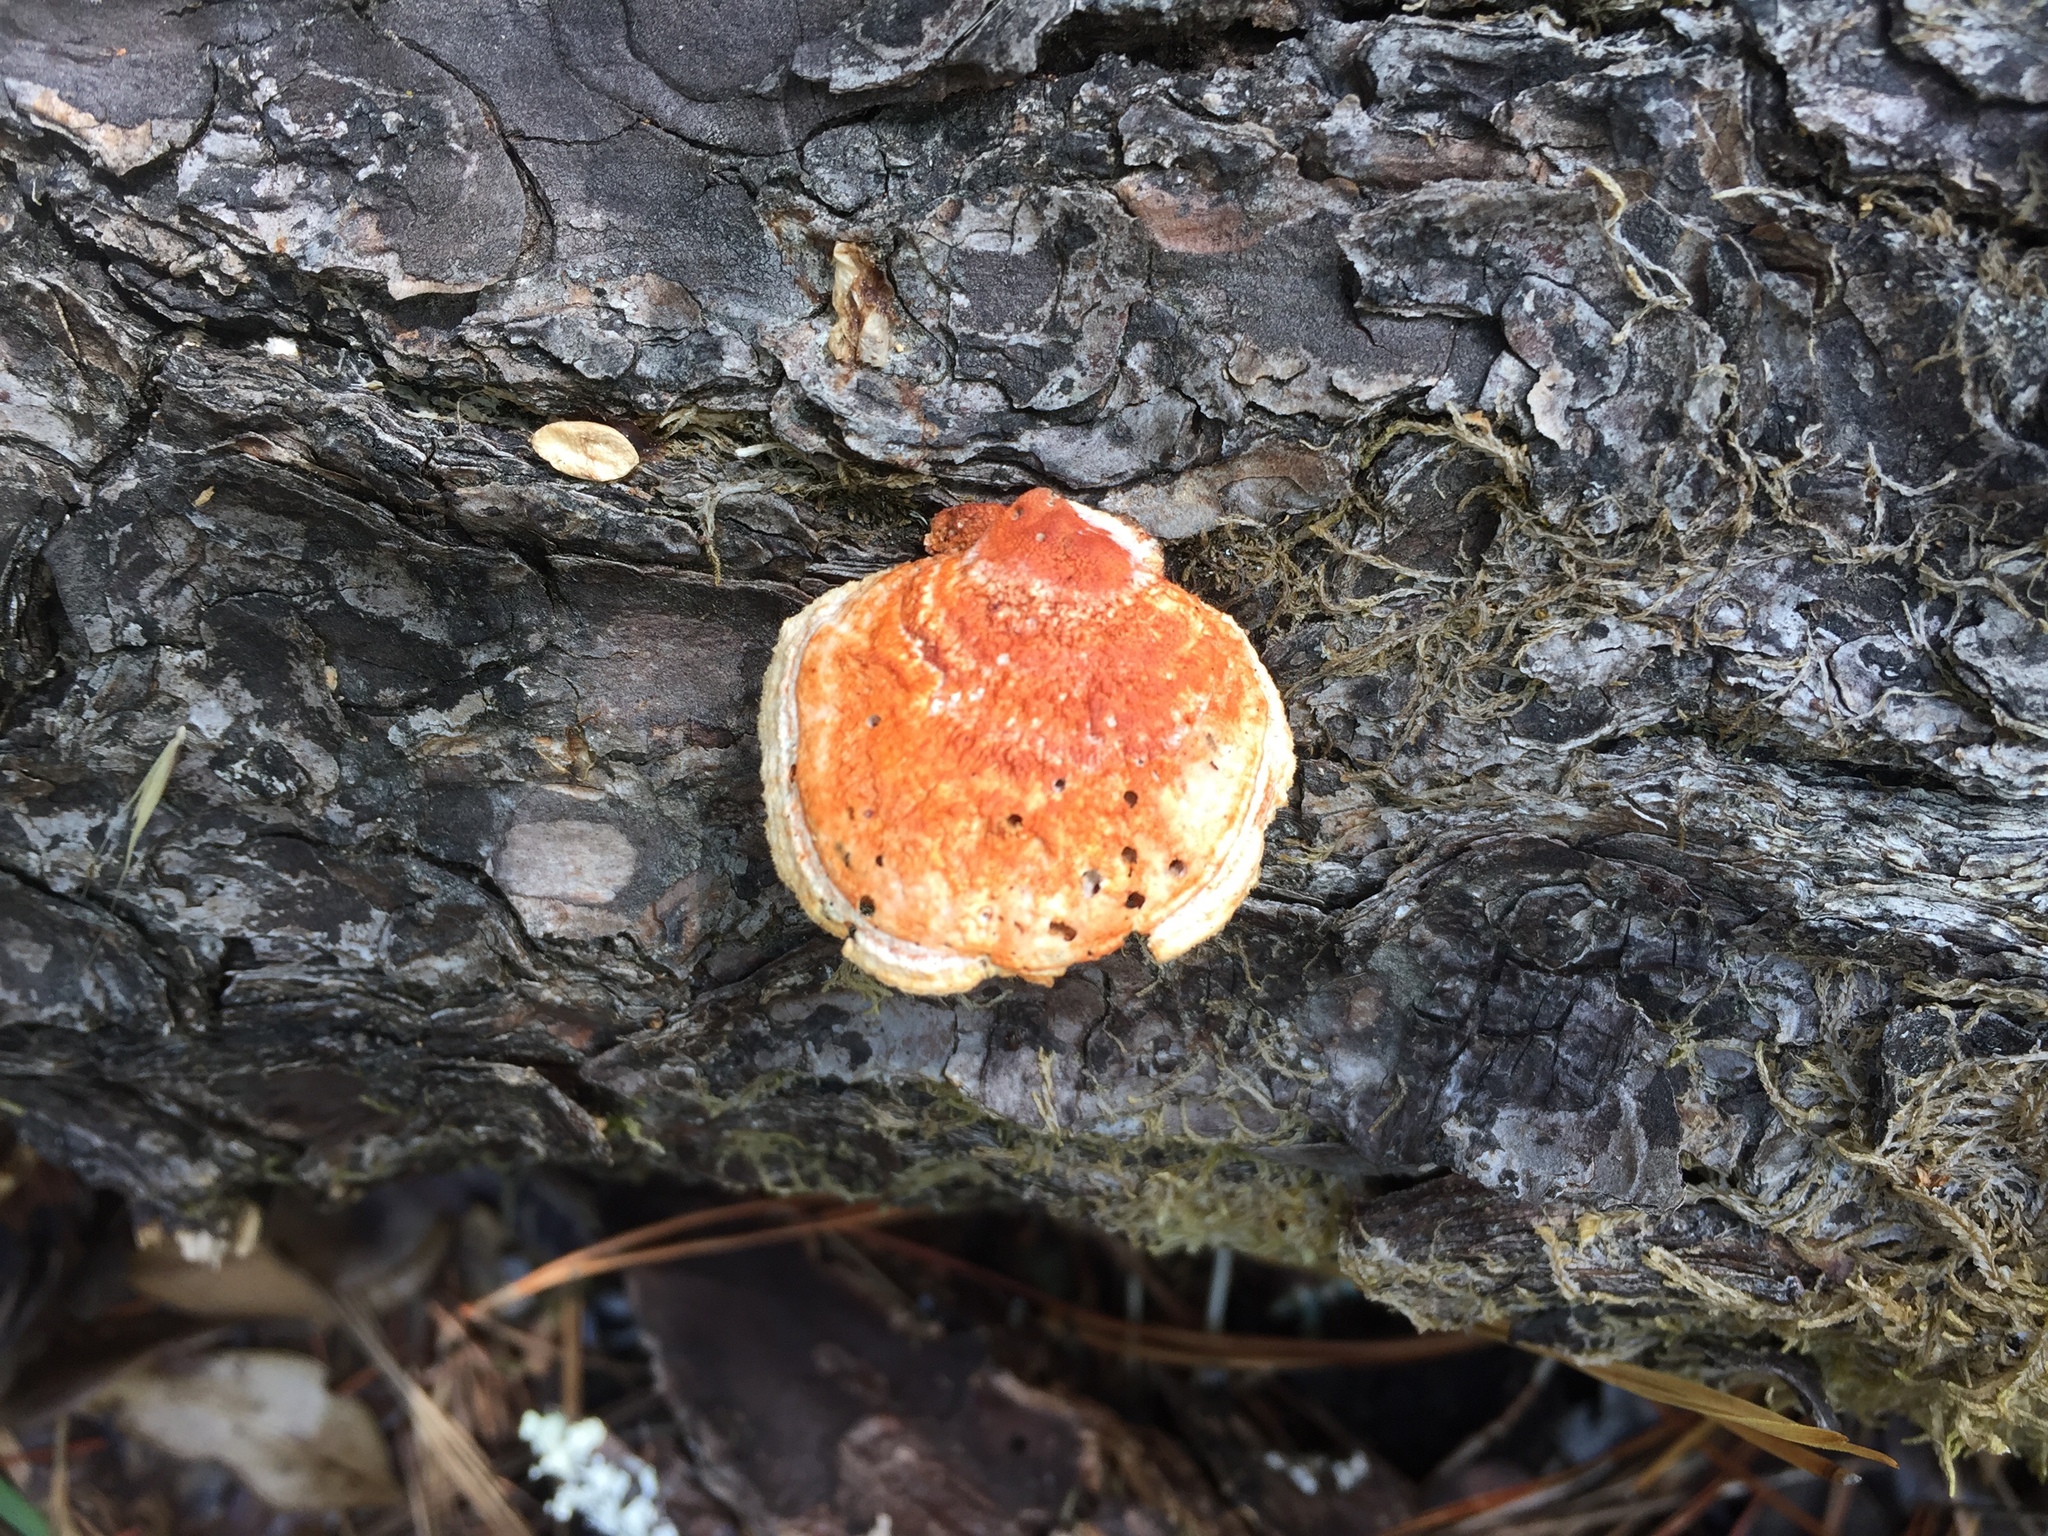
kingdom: Fungi
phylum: Basidiomycota
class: Agaricomycetes
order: Polyporales
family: Polyporaceae
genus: Trametes
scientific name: Trametes coccinea
